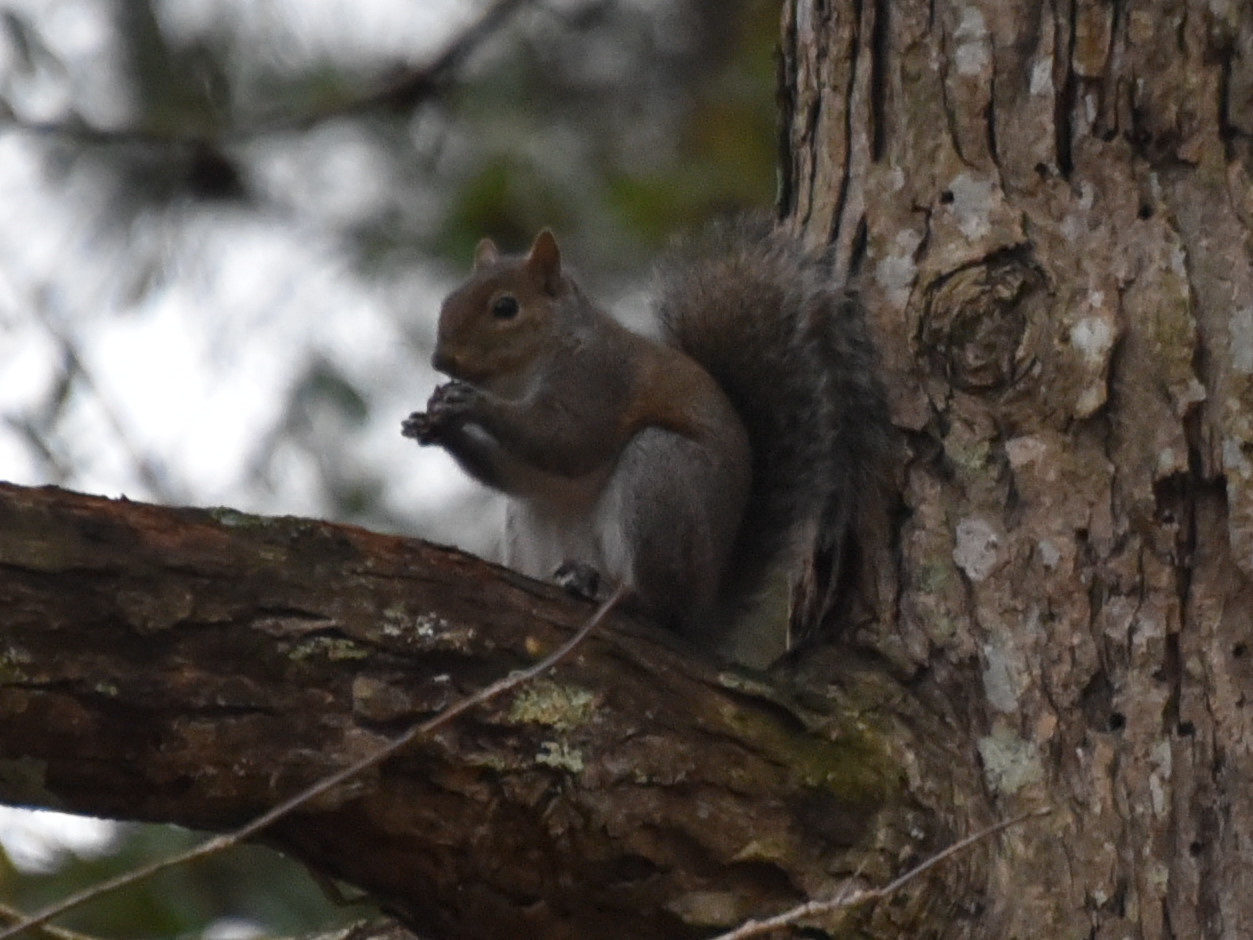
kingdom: Animalia
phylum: Chordata
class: Mammalia
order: Rodentia
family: Sciuridae
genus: Sciurus
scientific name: Sciurus carolinensis
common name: Eastern gray squirrel
